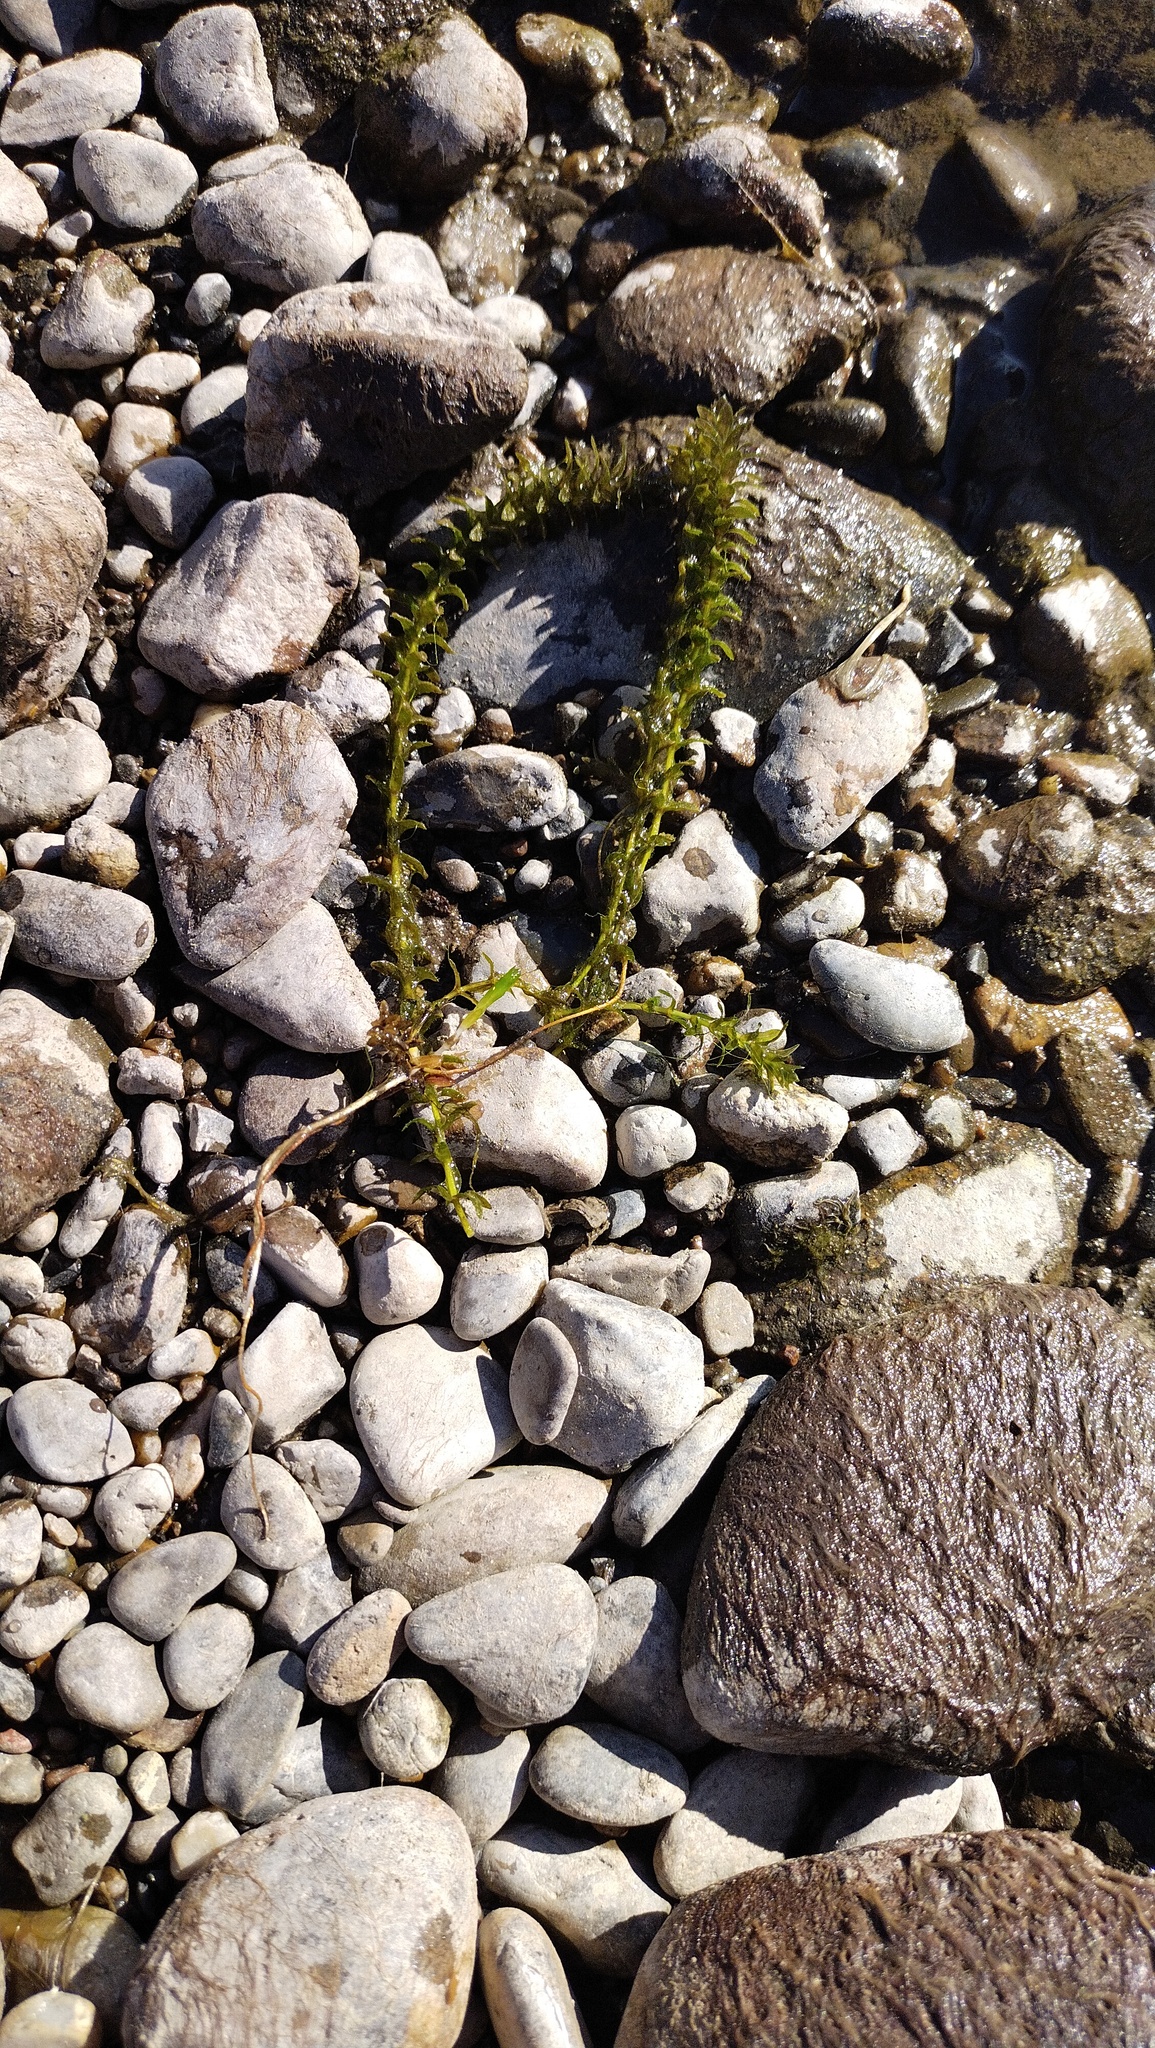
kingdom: Plantae
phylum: Tracheophyta
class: Liliopsida
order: Alismatales
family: Hydrocharitaceae
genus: Elodea
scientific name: Elodea canadensis
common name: Canadian waterweed
